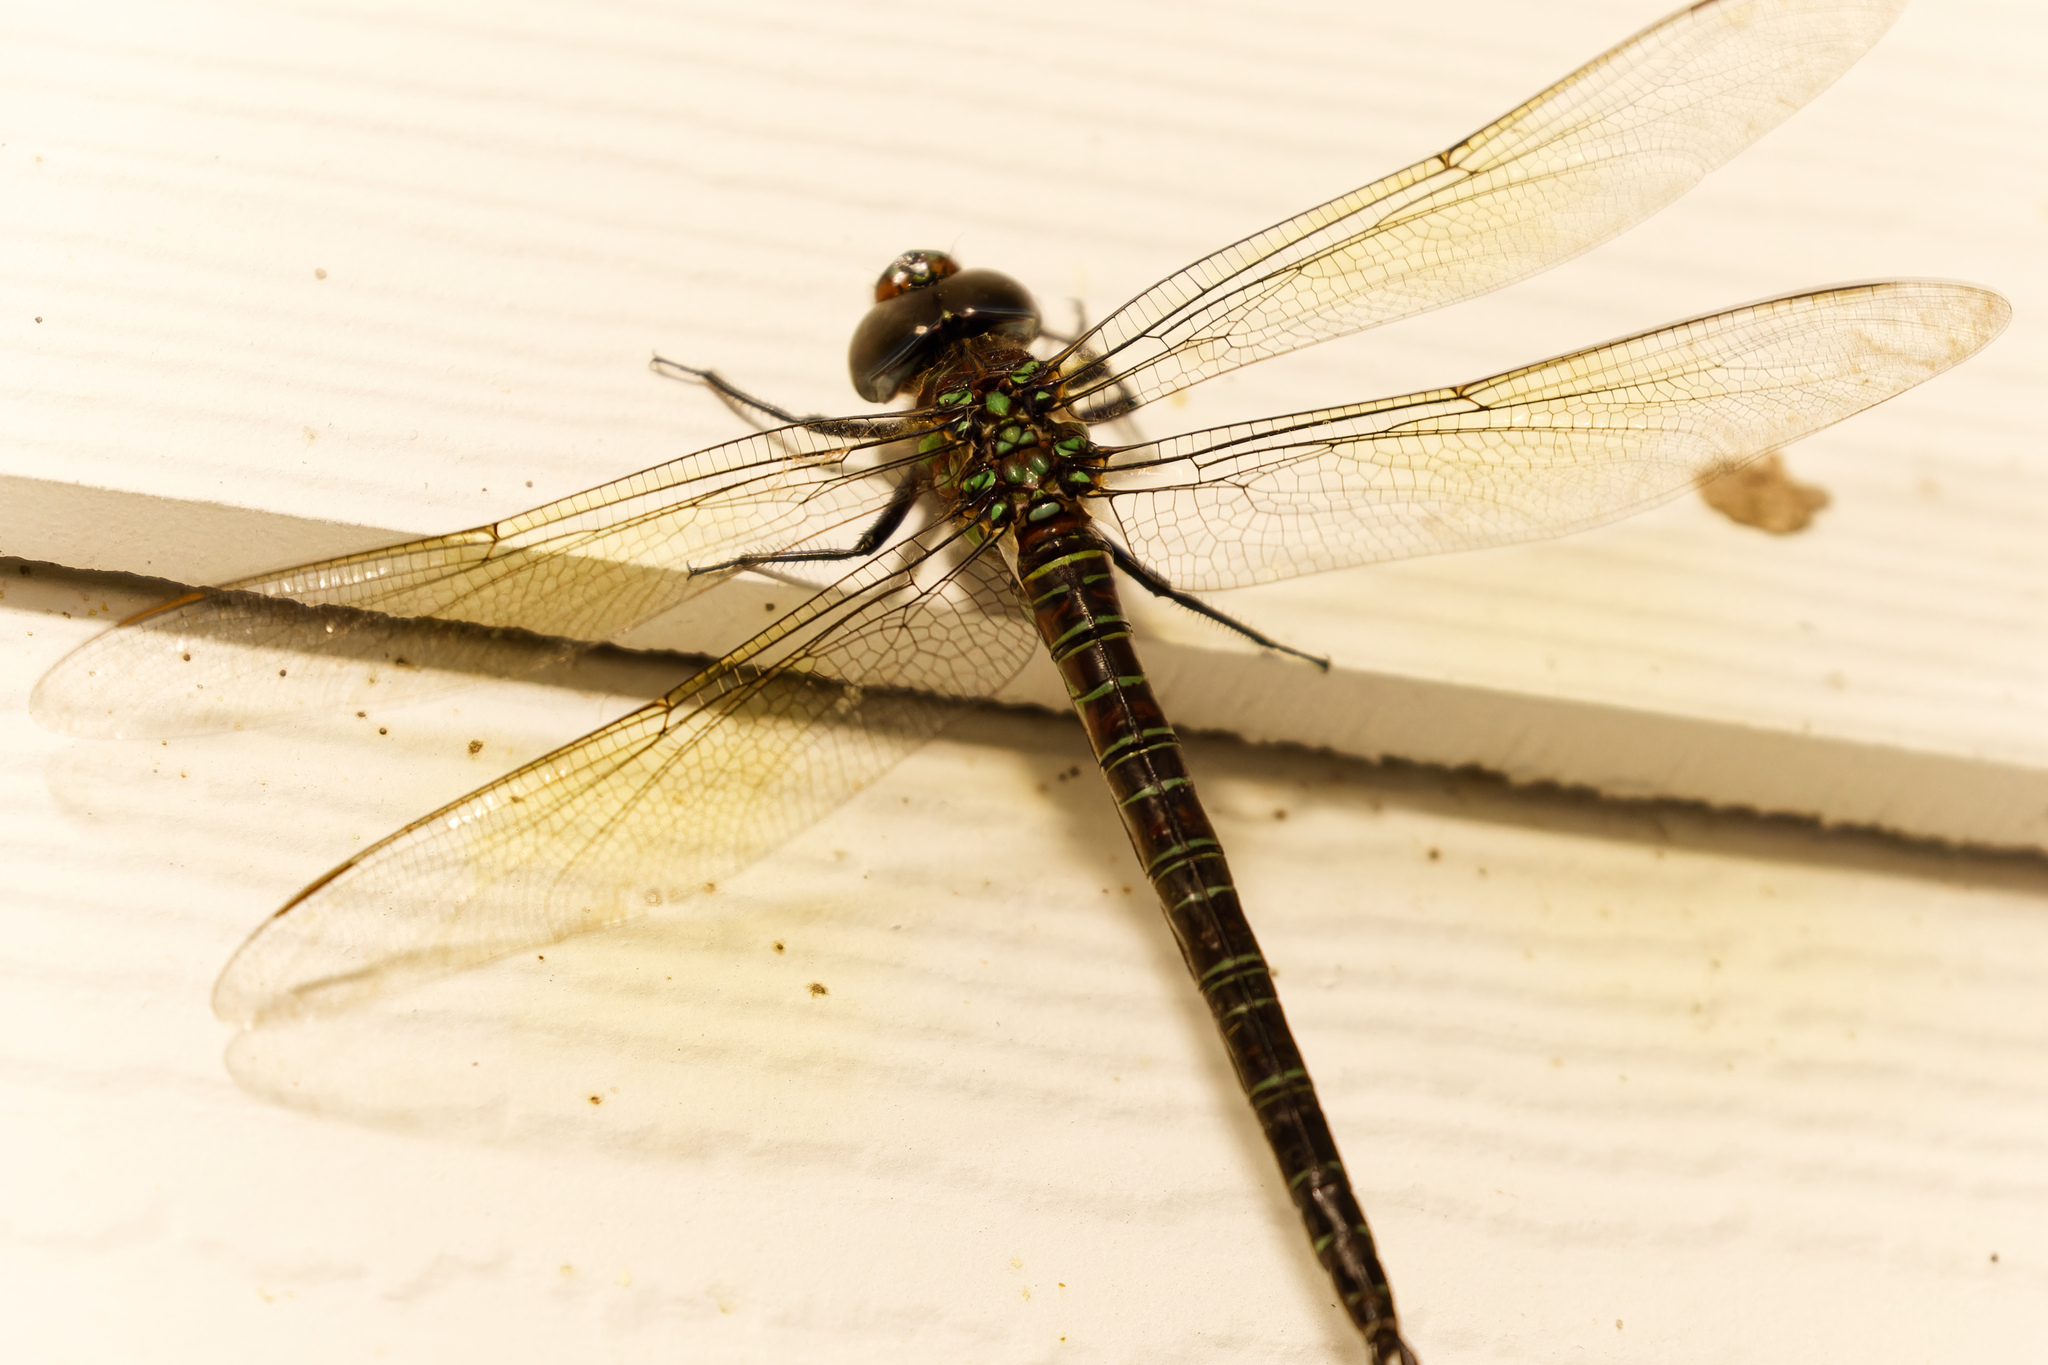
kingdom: Animalia
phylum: Arthropoda
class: Insecta
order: Odonata
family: Aeshnidae
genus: Epiaeschna
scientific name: Epiaeschna heros
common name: Swamp darner
